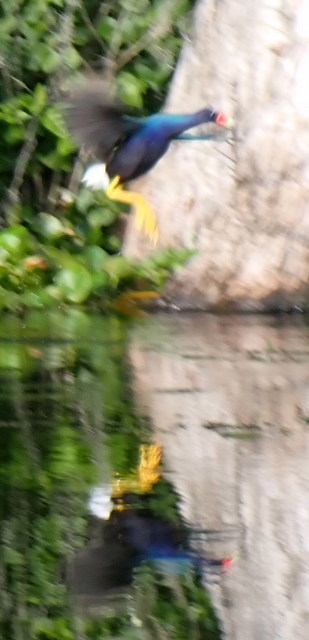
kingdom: Animalia
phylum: Chordata
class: Aves
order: Gruiformes
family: Rallidae
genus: Porphyrio
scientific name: Porphyrio martinica
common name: Purple gallinule
